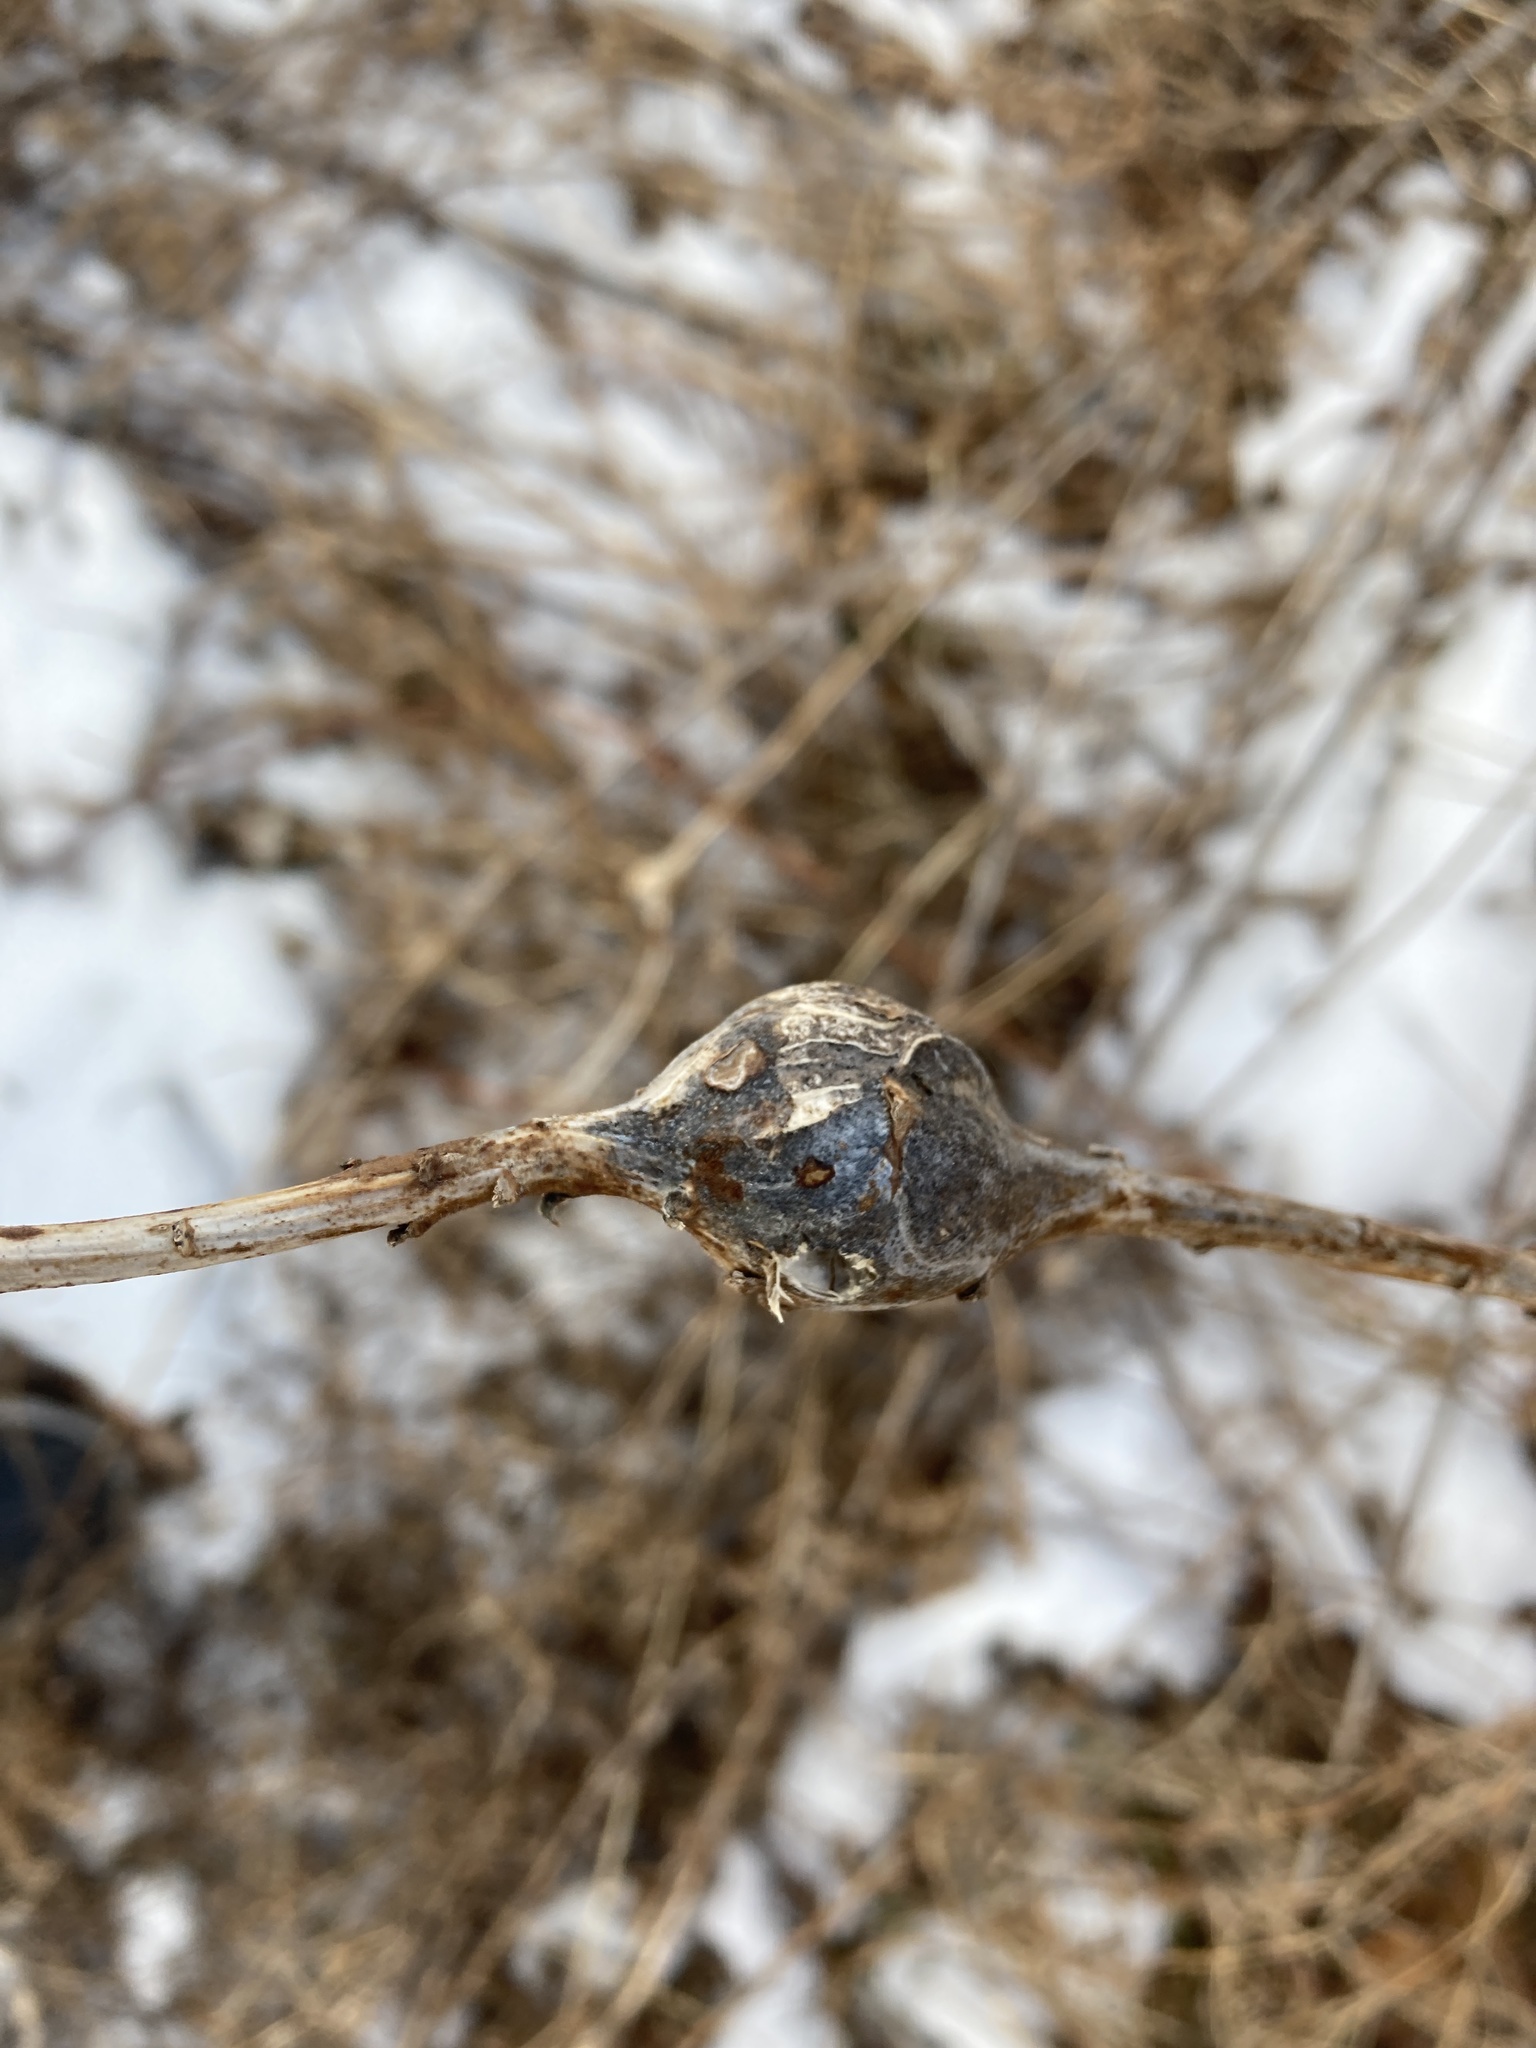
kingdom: Animalia
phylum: Arthropoda
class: Insecta
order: Diptera
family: Tephritidae
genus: Eurosta
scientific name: Eurosta solidaginis
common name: Goldenrod gall fly
